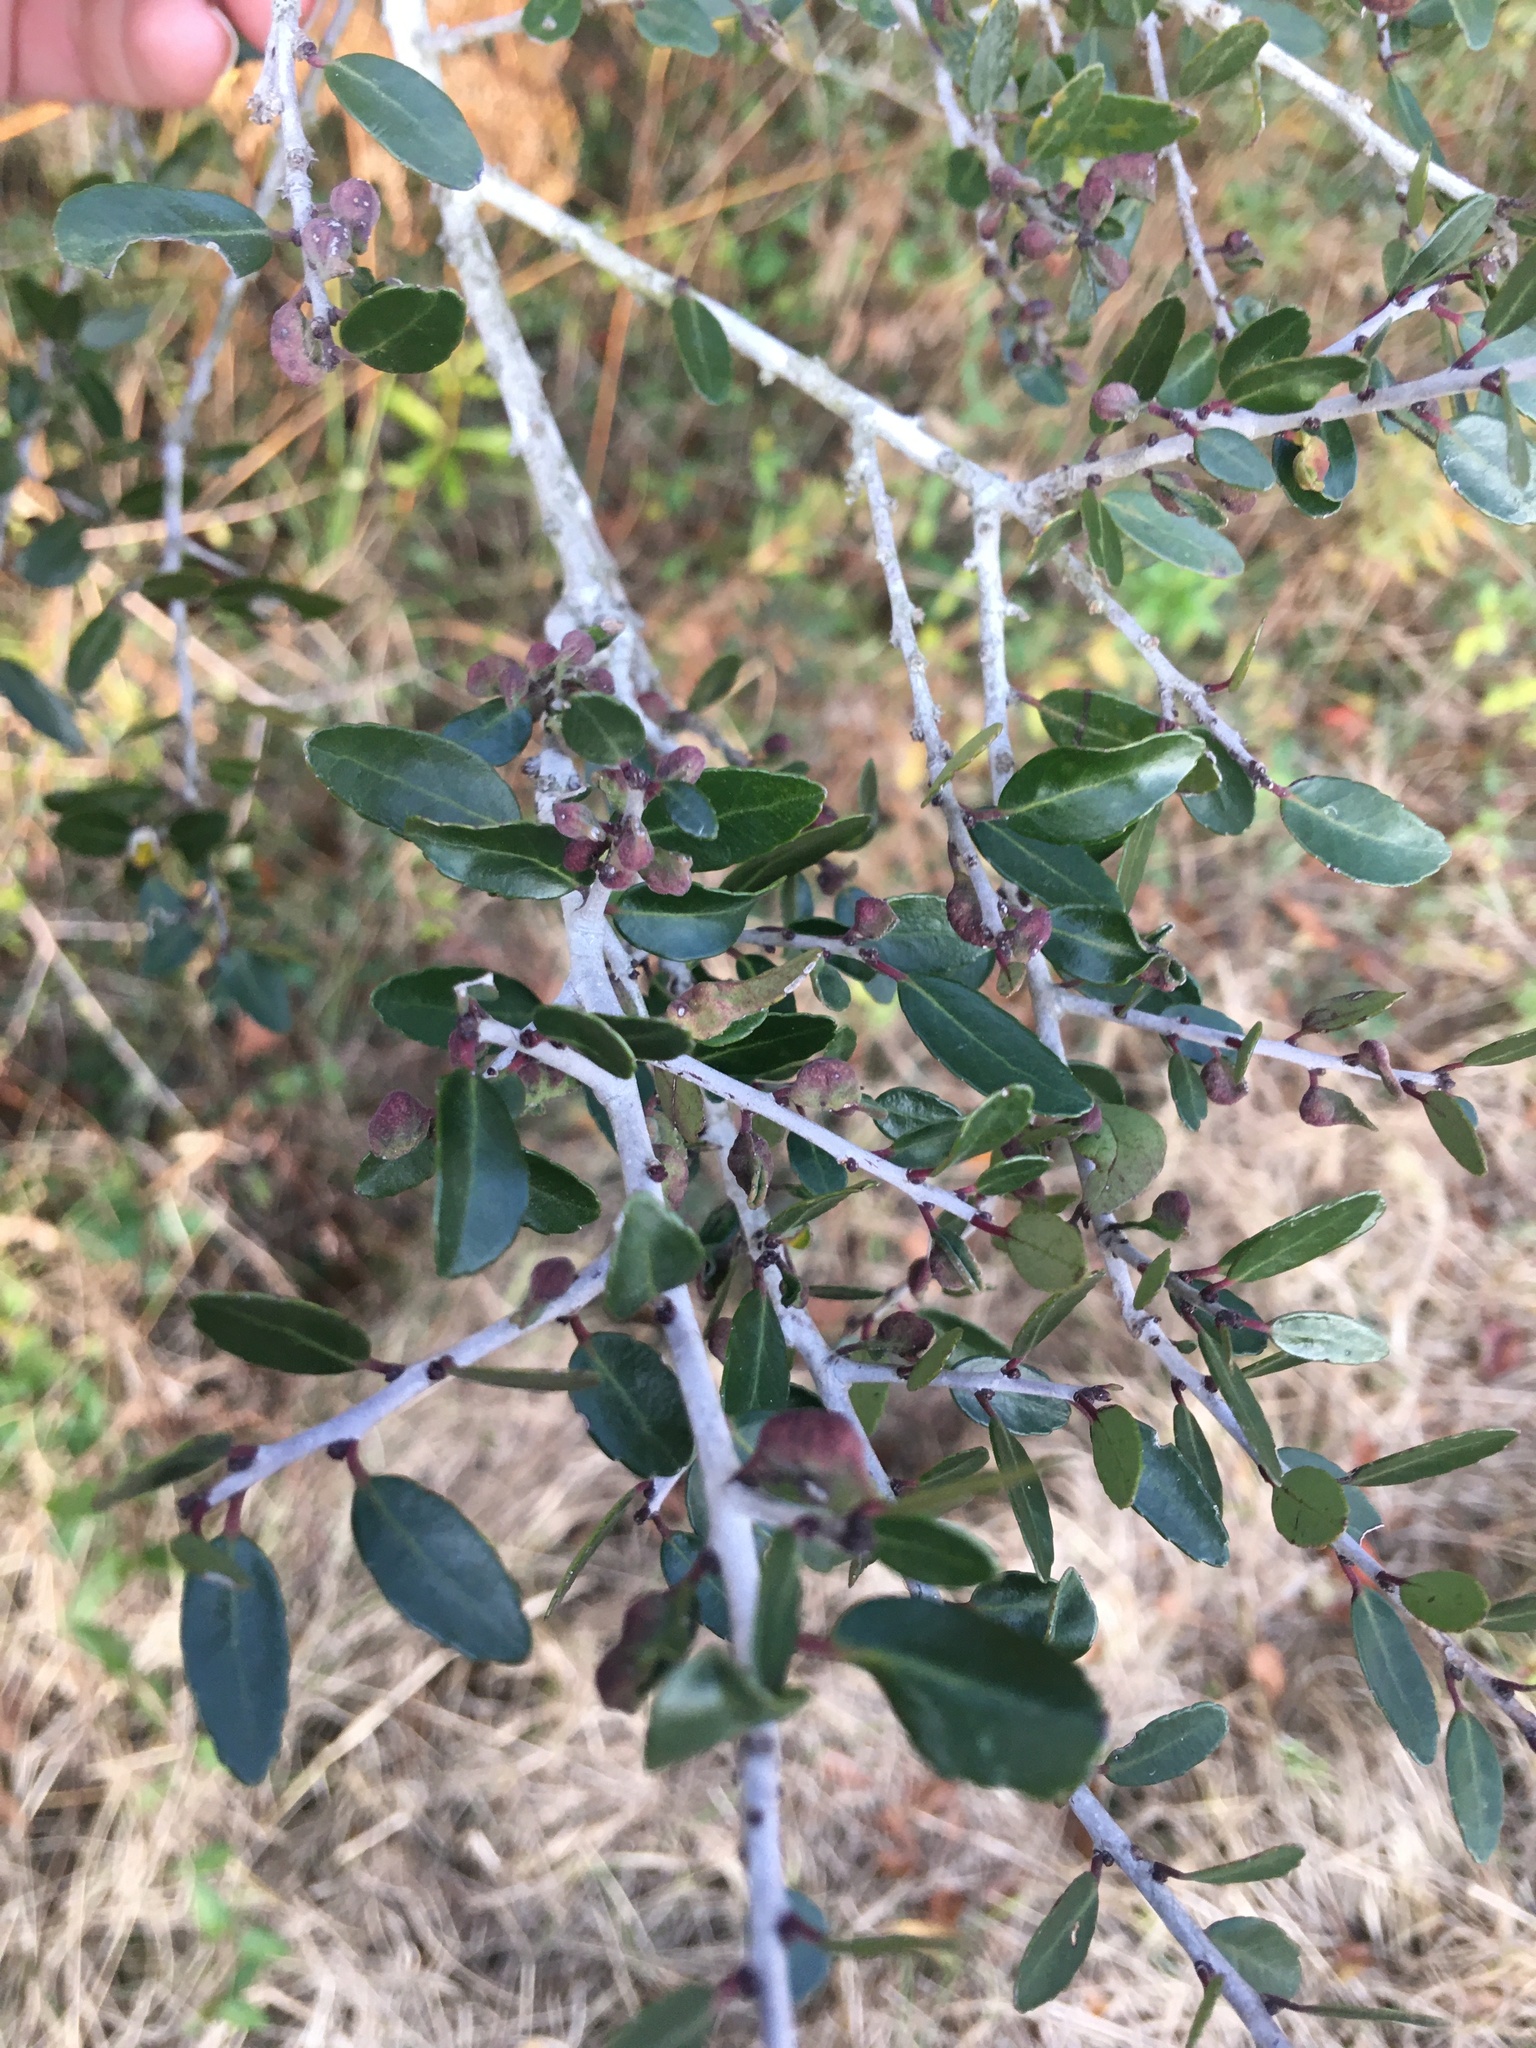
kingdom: Plantae
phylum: Tracheophyta
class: Magnoliopsida
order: Aquifoliales
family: Aquifoliaceae
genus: Ilex
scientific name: Ilex vomitoria
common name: Yaupon holly
